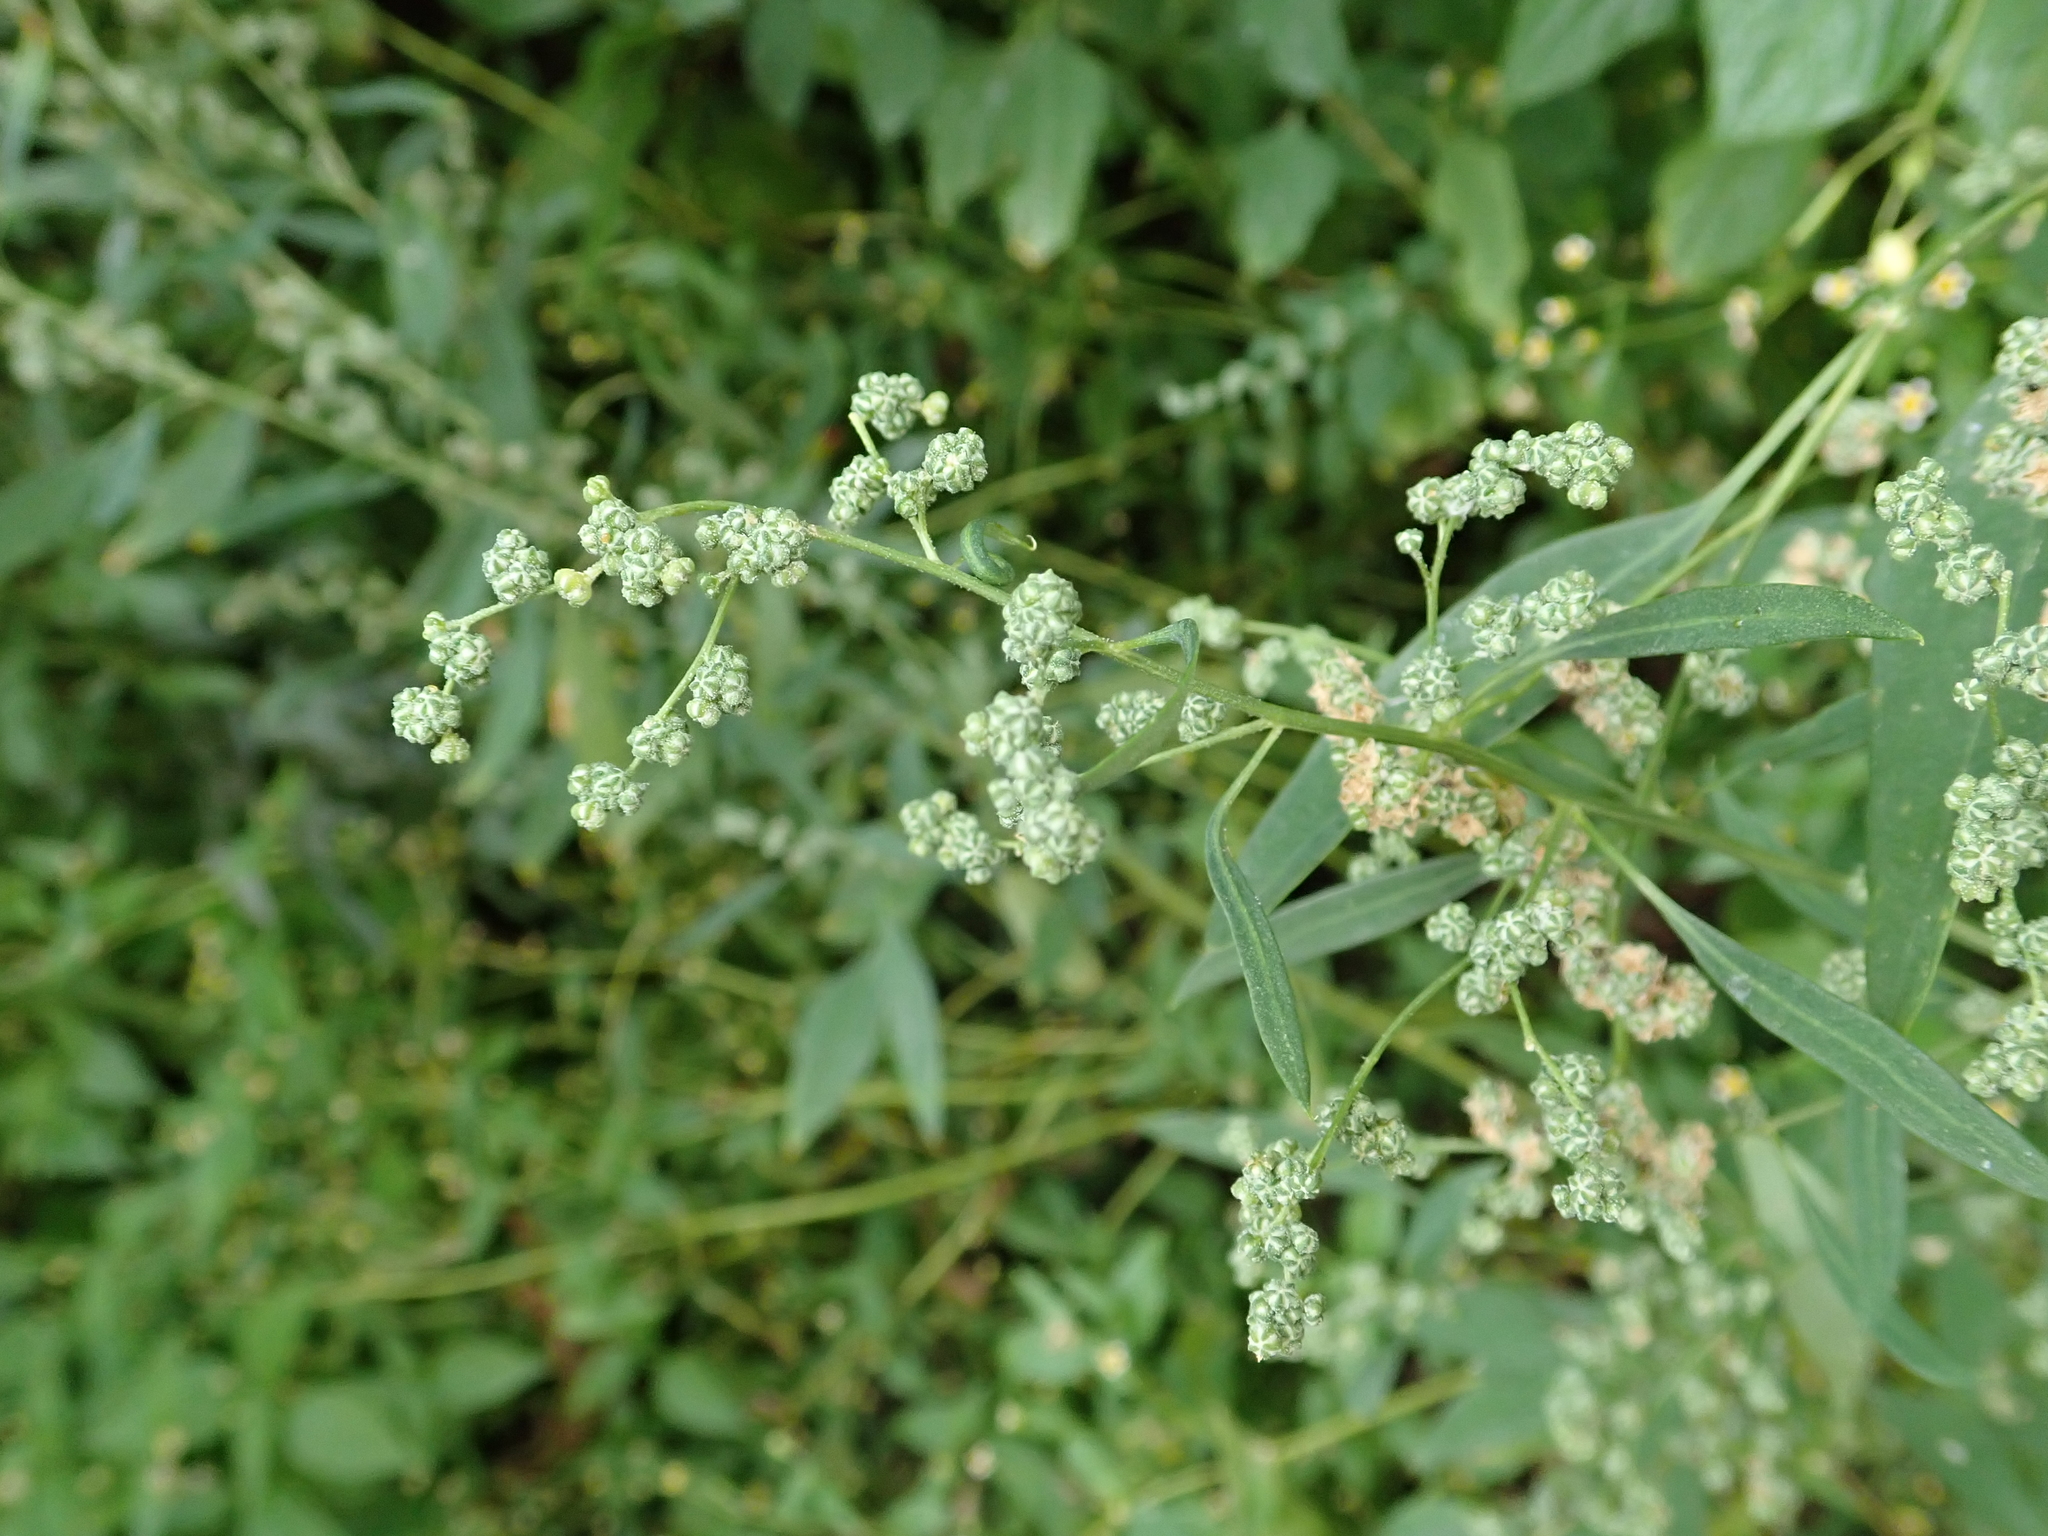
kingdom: Plantae
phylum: Tracheophyta
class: Magnoliopsida
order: Caryophyllales
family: Amaranthaceae
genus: Chenopodium
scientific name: Chenopodium album
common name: Fat-hen
